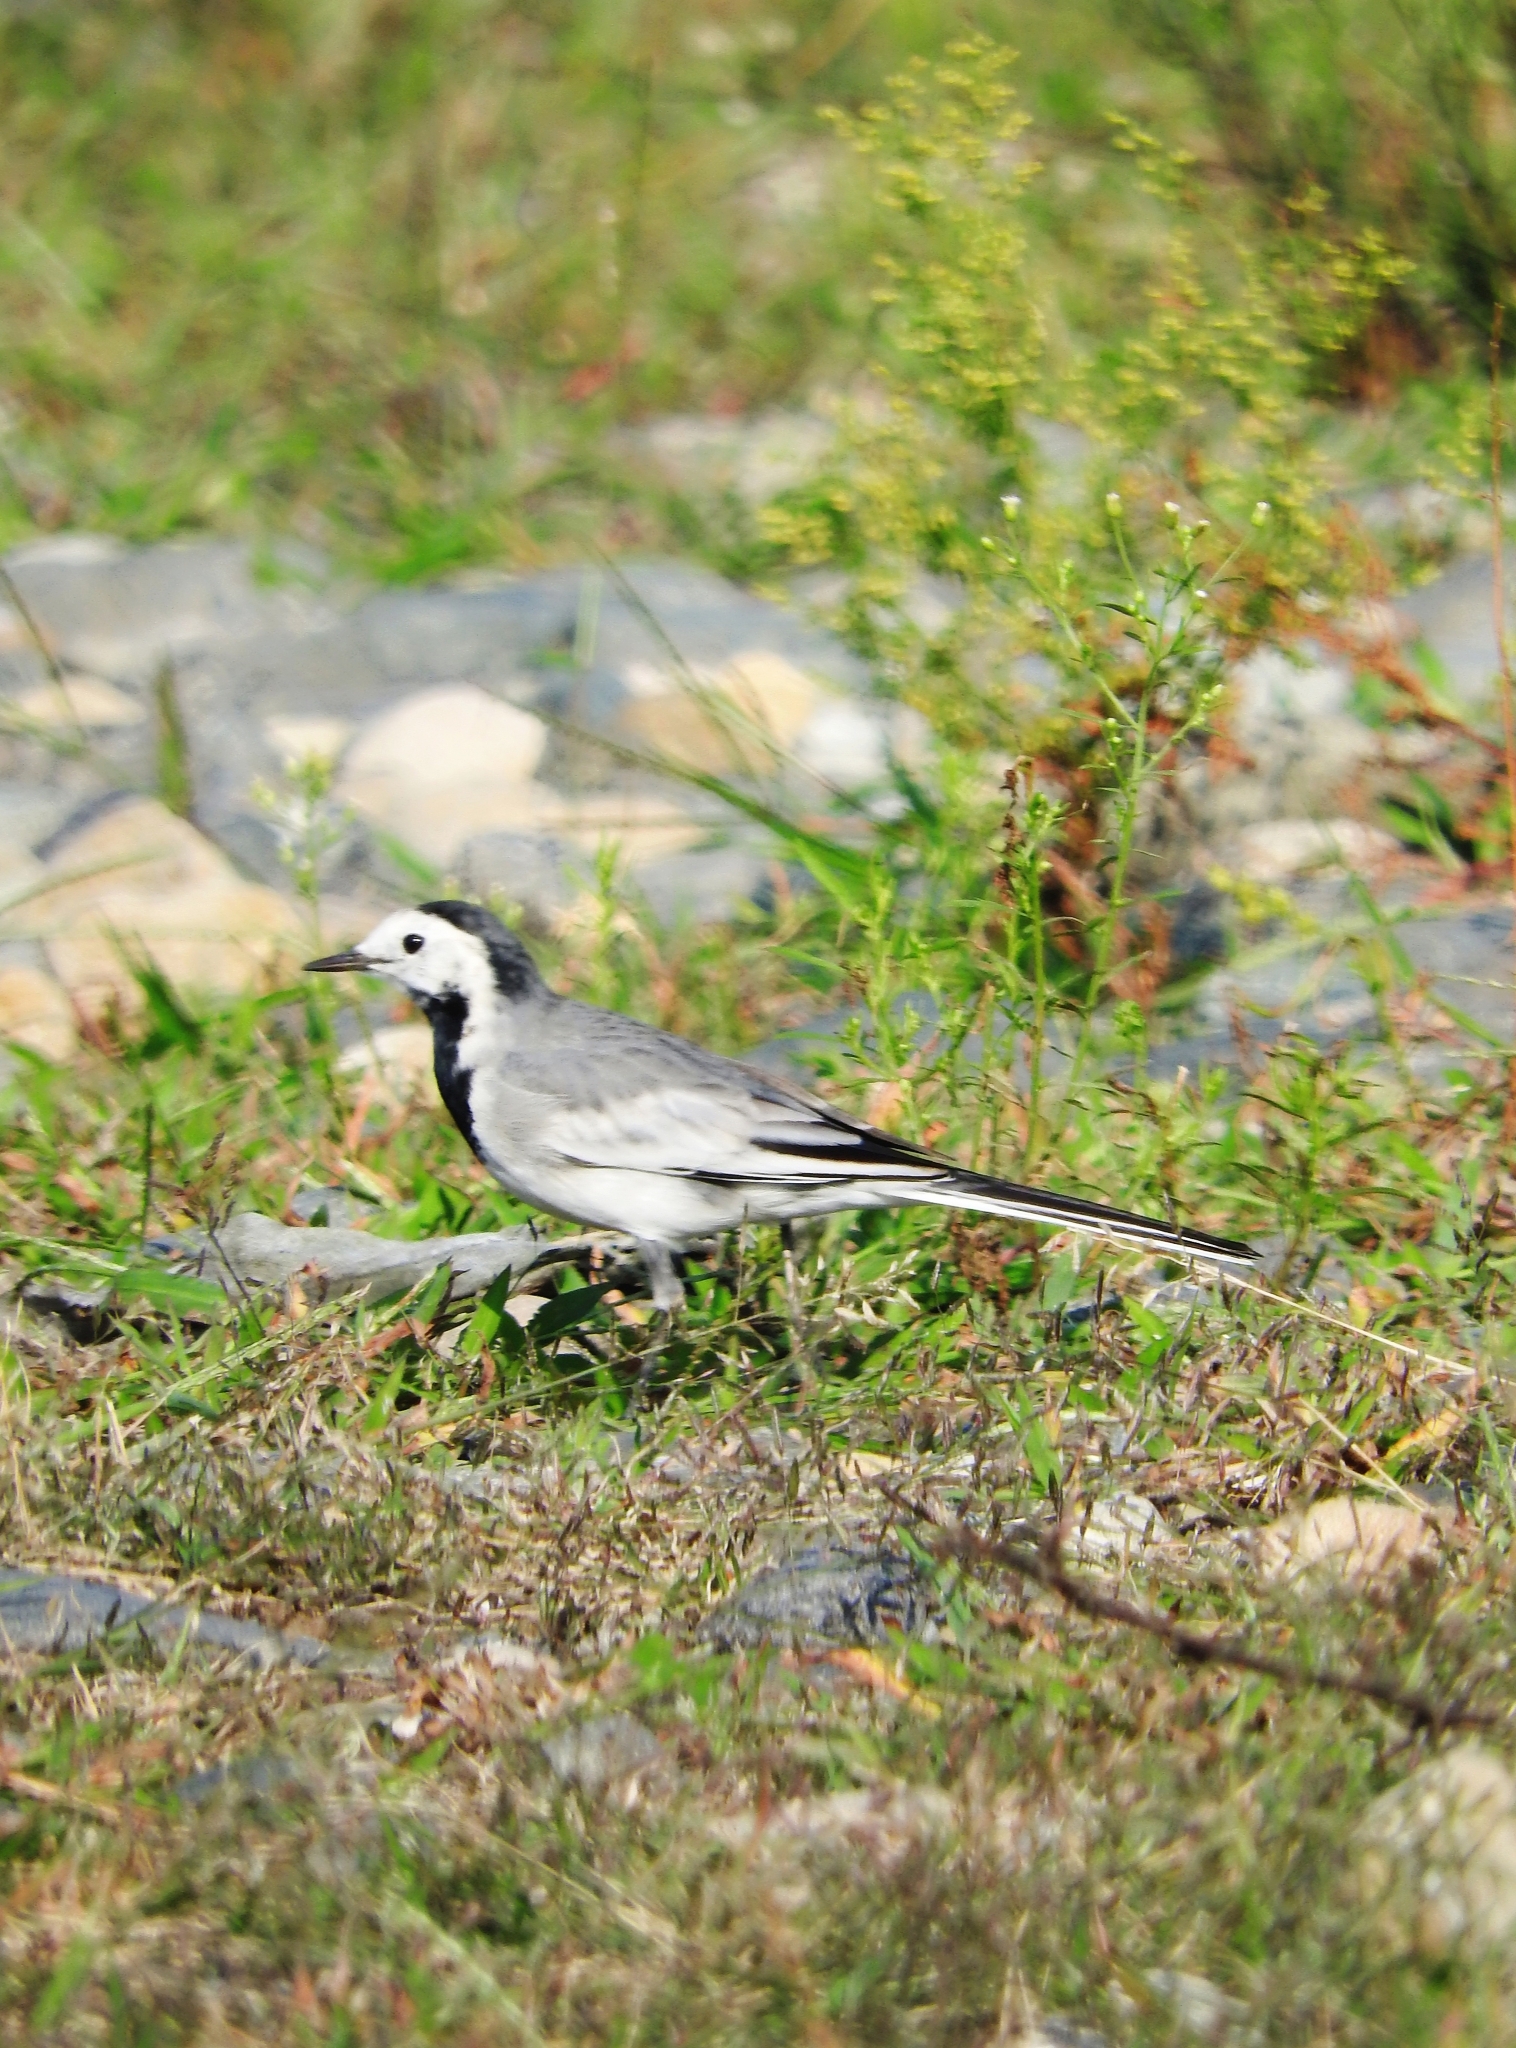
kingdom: Animalia
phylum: Chordata
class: Aves
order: Passeriformes
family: Motacillidae
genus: Motacilla
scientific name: Motacilla alba
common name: White wagtail
